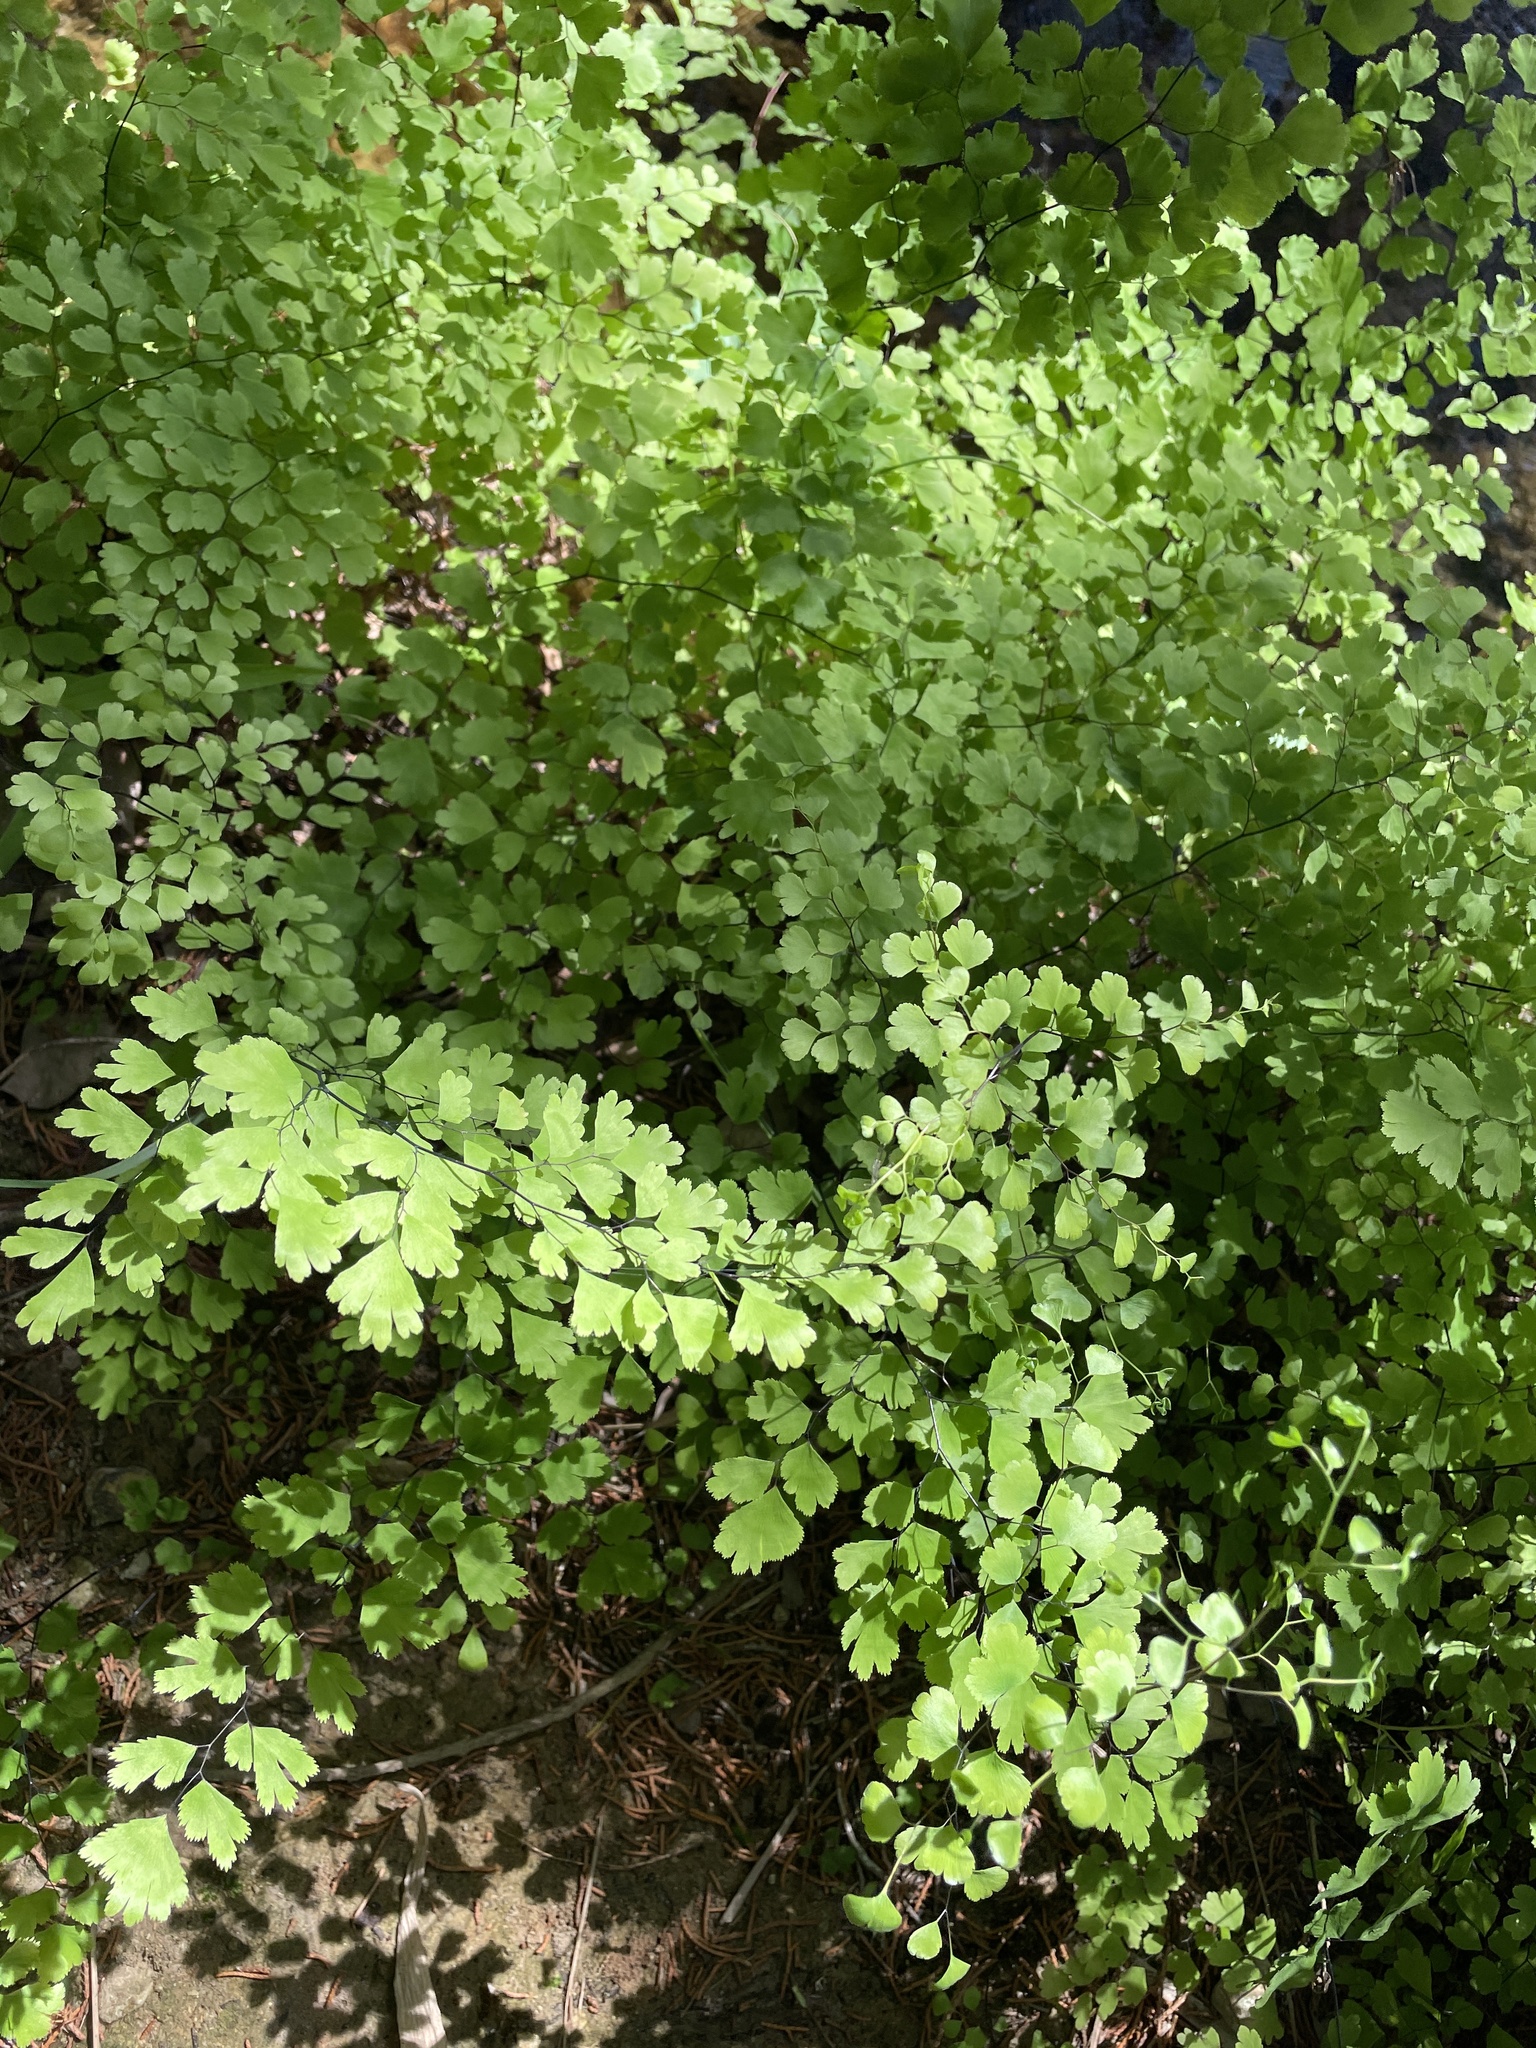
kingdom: Plantae
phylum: Tracheophyta
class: Polypodiopsida
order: Polypodiales
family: Pteridaceae
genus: Adiantum
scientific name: Adiantum capillus-veneris
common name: Maidenhair fern
